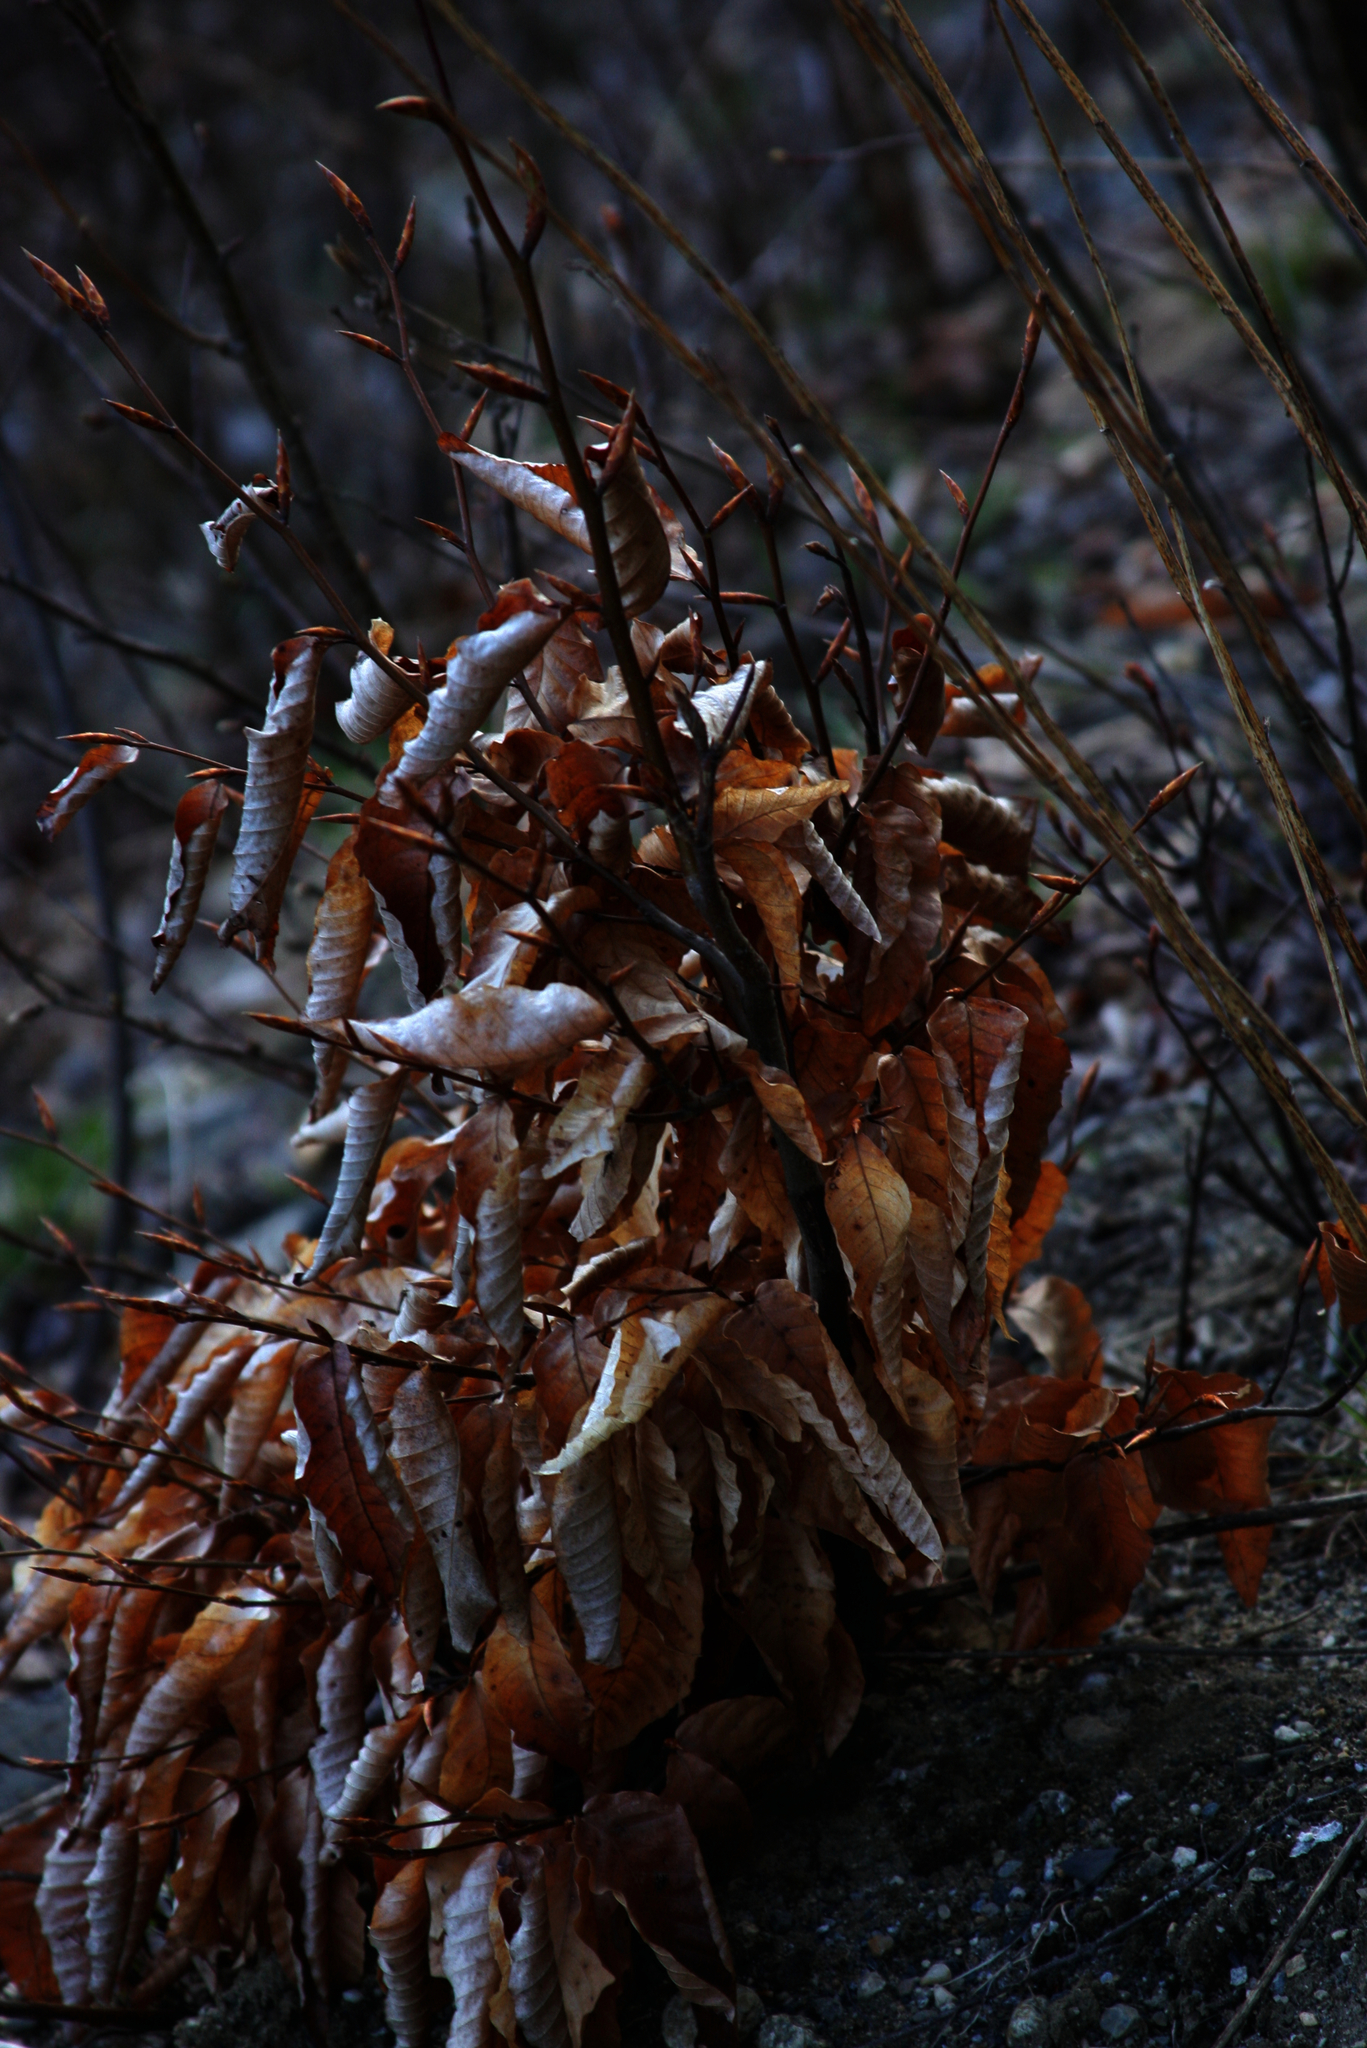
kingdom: Plantae
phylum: Tracheophyta
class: Magnoliopsida
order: Fagales
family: Fagaceae
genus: Fagus
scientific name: Fagus grandifolia
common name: American beech
